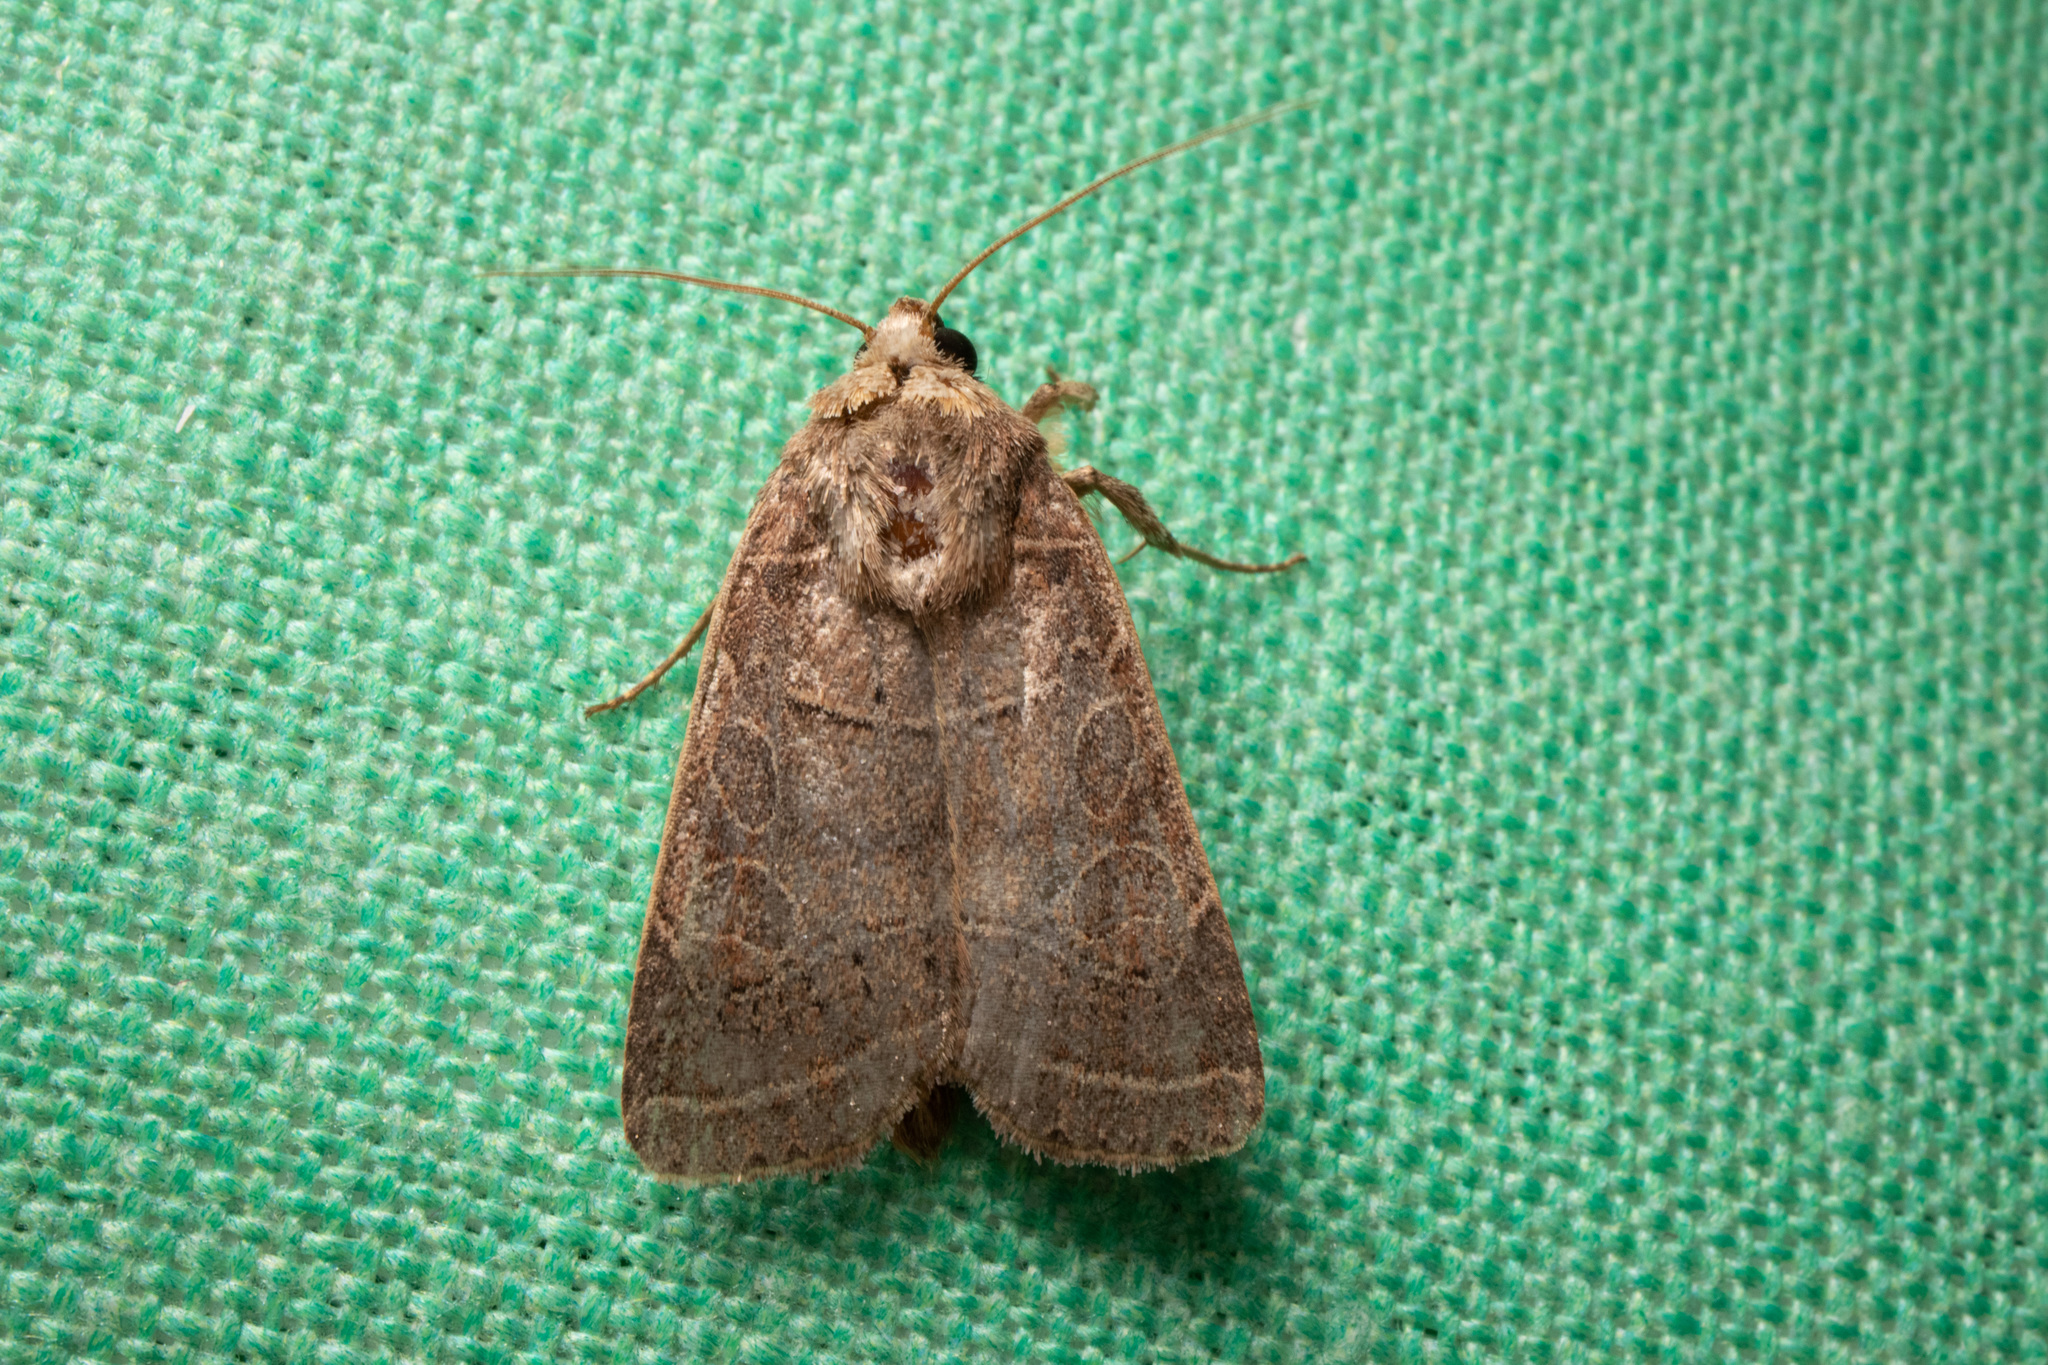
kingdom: Animalia
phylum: Arthropoda
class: Insecta
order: Lepidoptera
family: Noctuidae
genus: Orthodes
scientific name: Orthodes majuscula
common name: Rustic quaker
